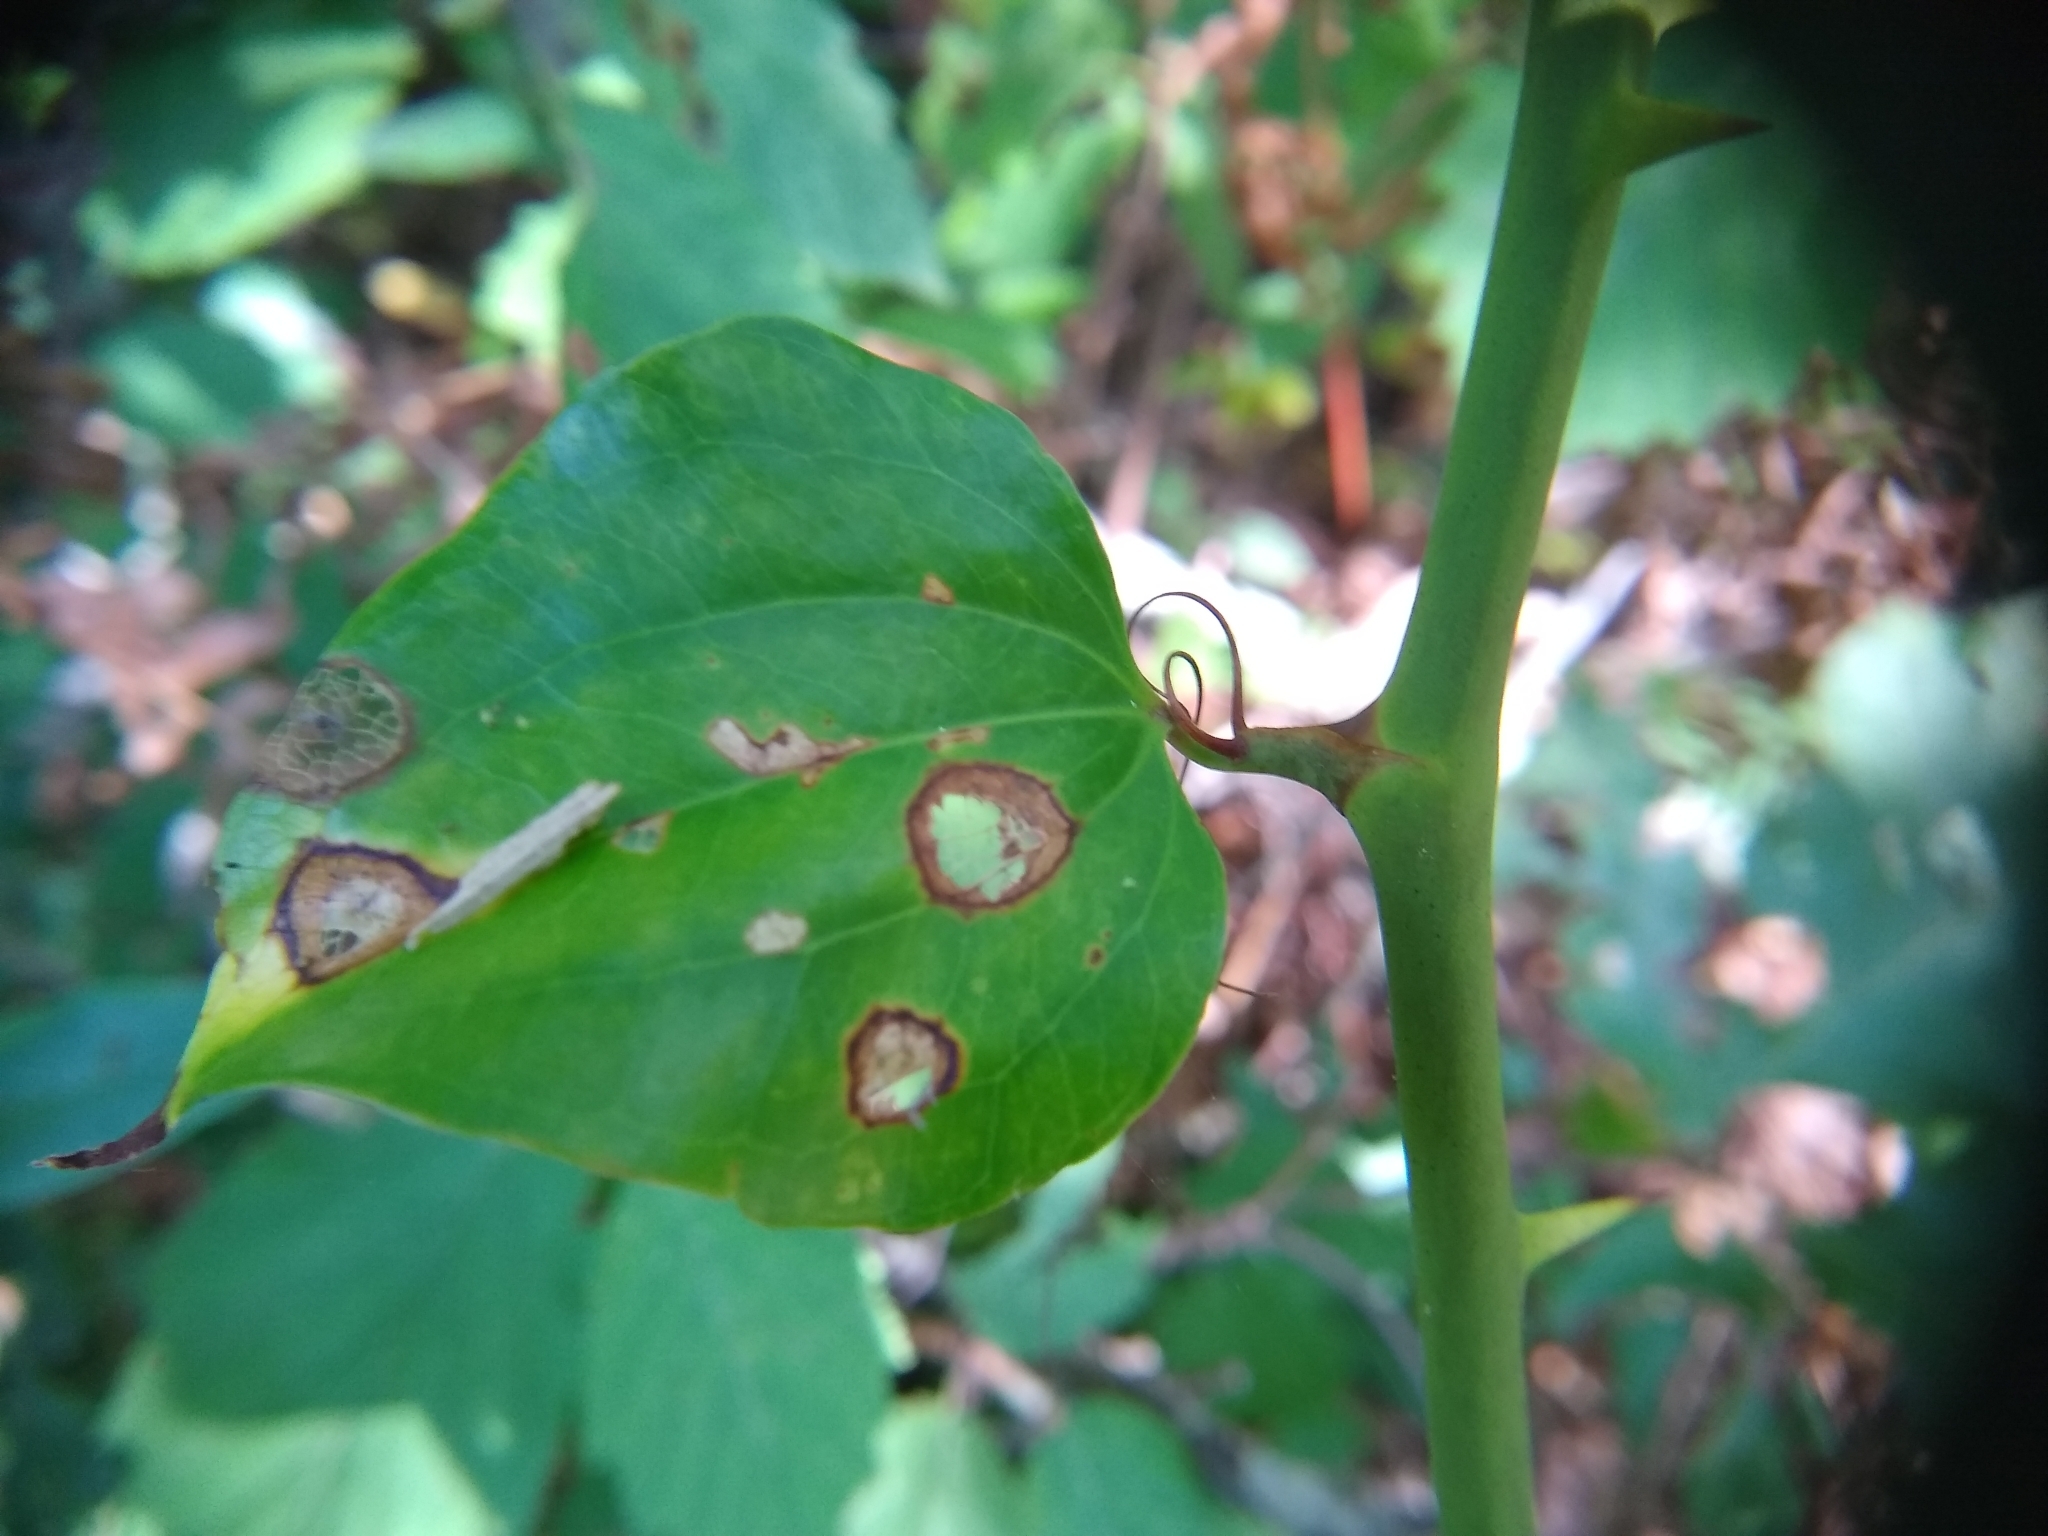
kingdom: Plantae
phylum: Tracheophyta
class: Liliopsida
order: Liliales
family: Smilacaceae
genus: Smilax
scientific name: Smilax rotundifolia
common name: Bullbriar
